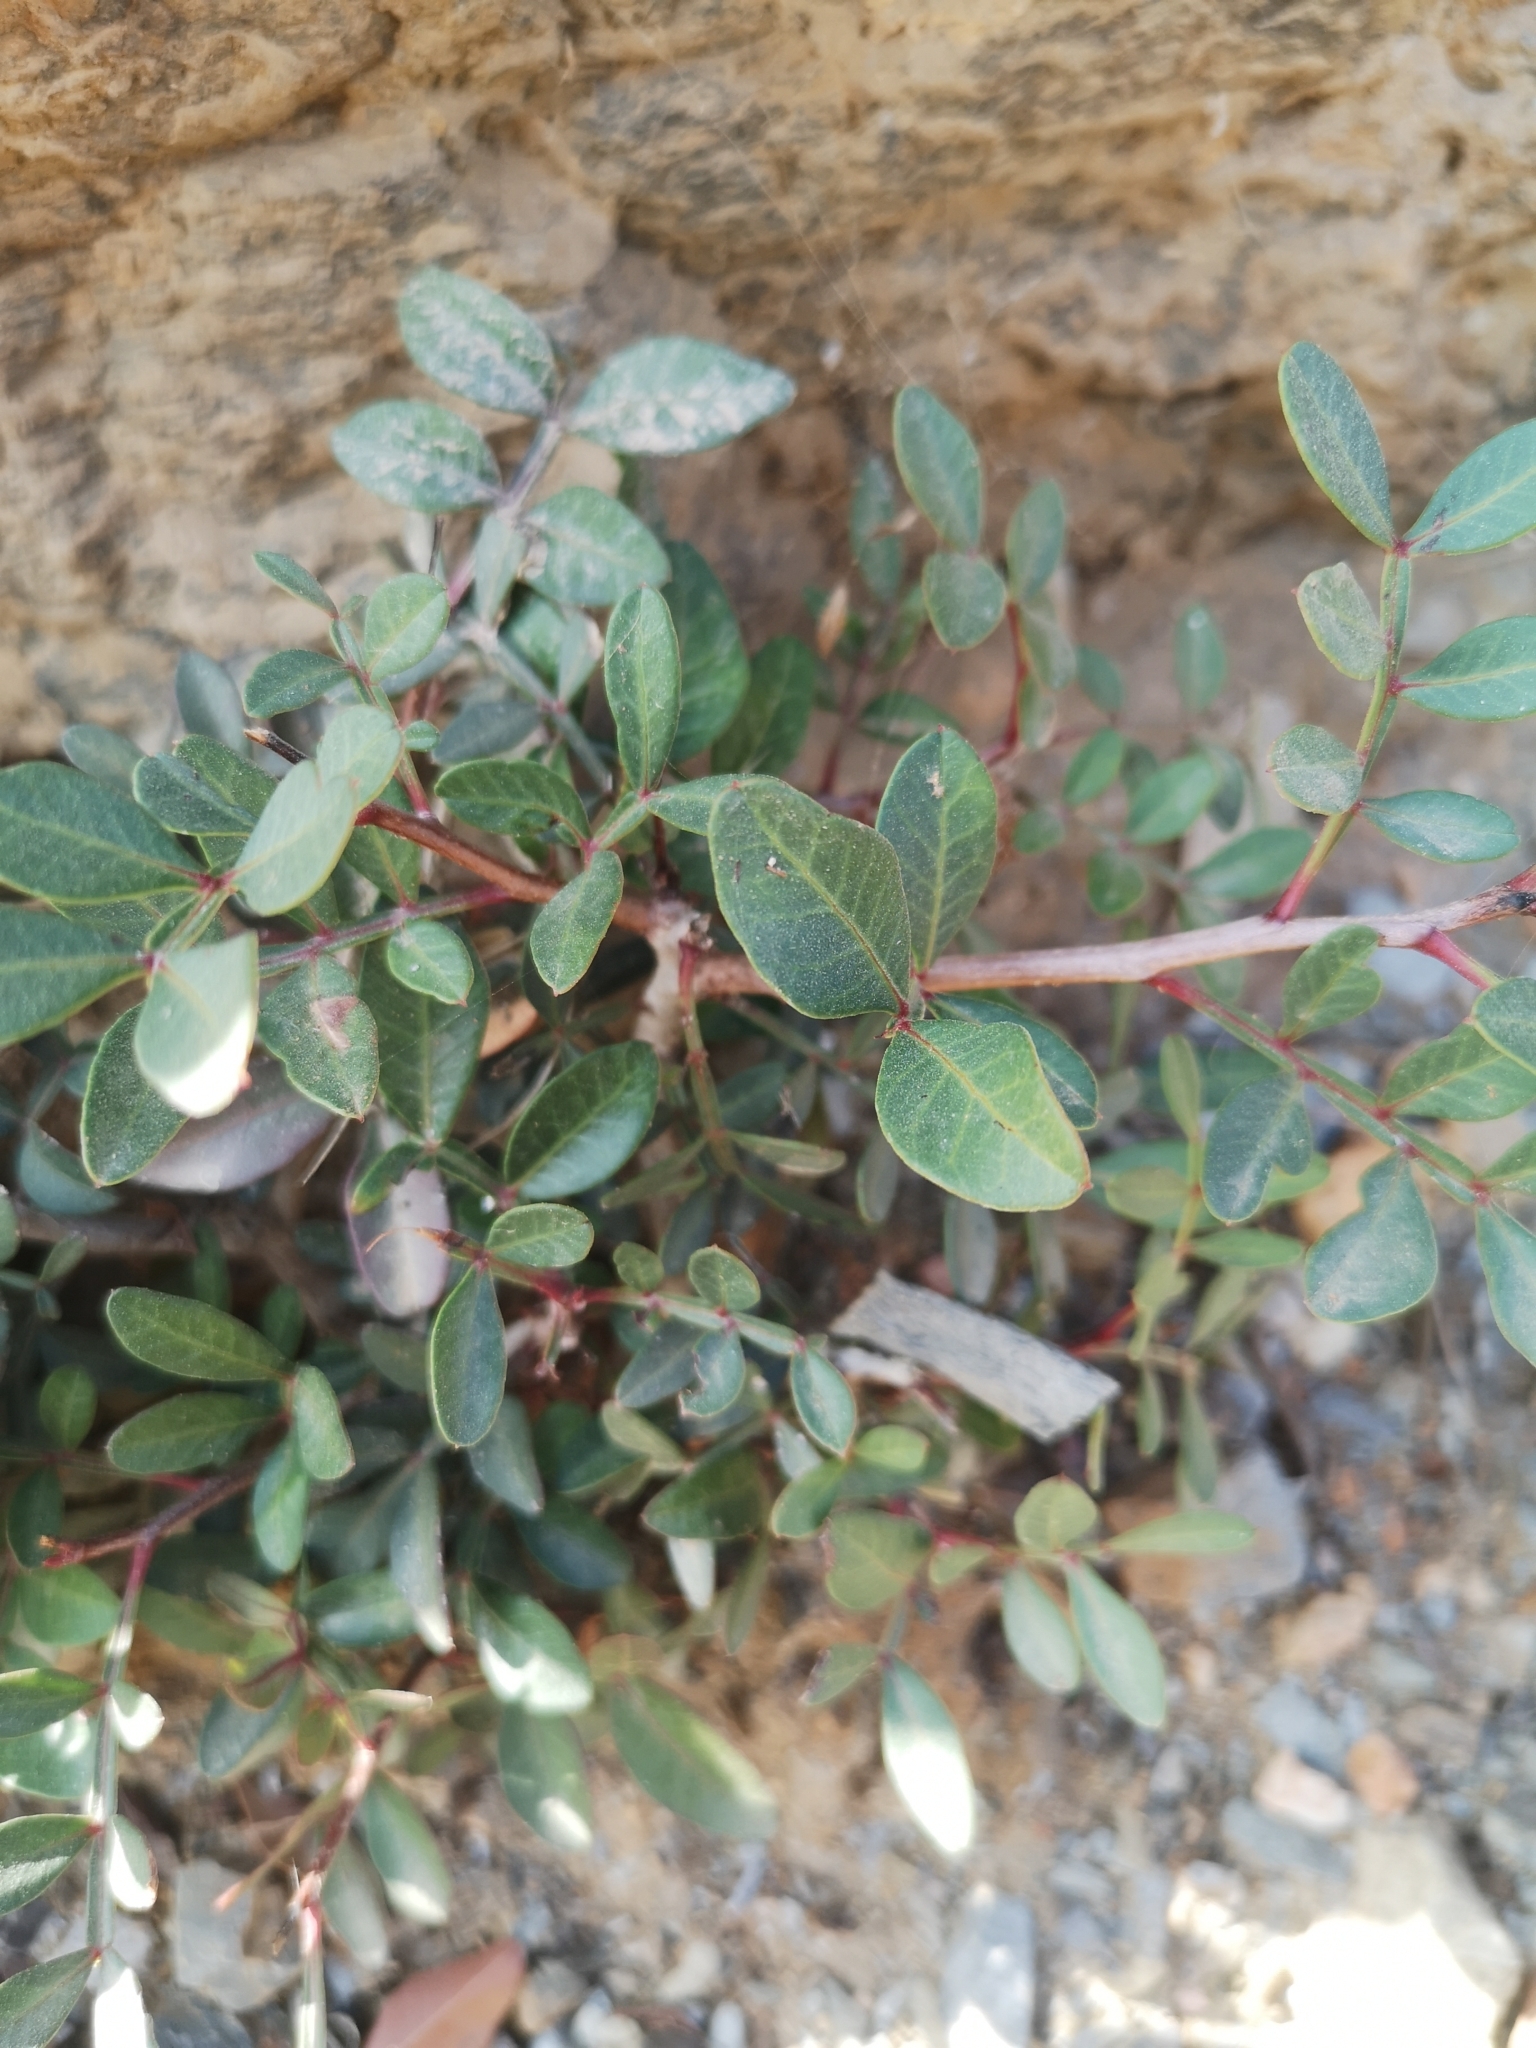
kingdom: Plantae
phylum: Tracheophyta
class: Magnoliopsida
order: Sapindales
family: Anacardiaceae
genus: Pistacia
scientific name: Pistacia lentiscus
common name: Lentisk
